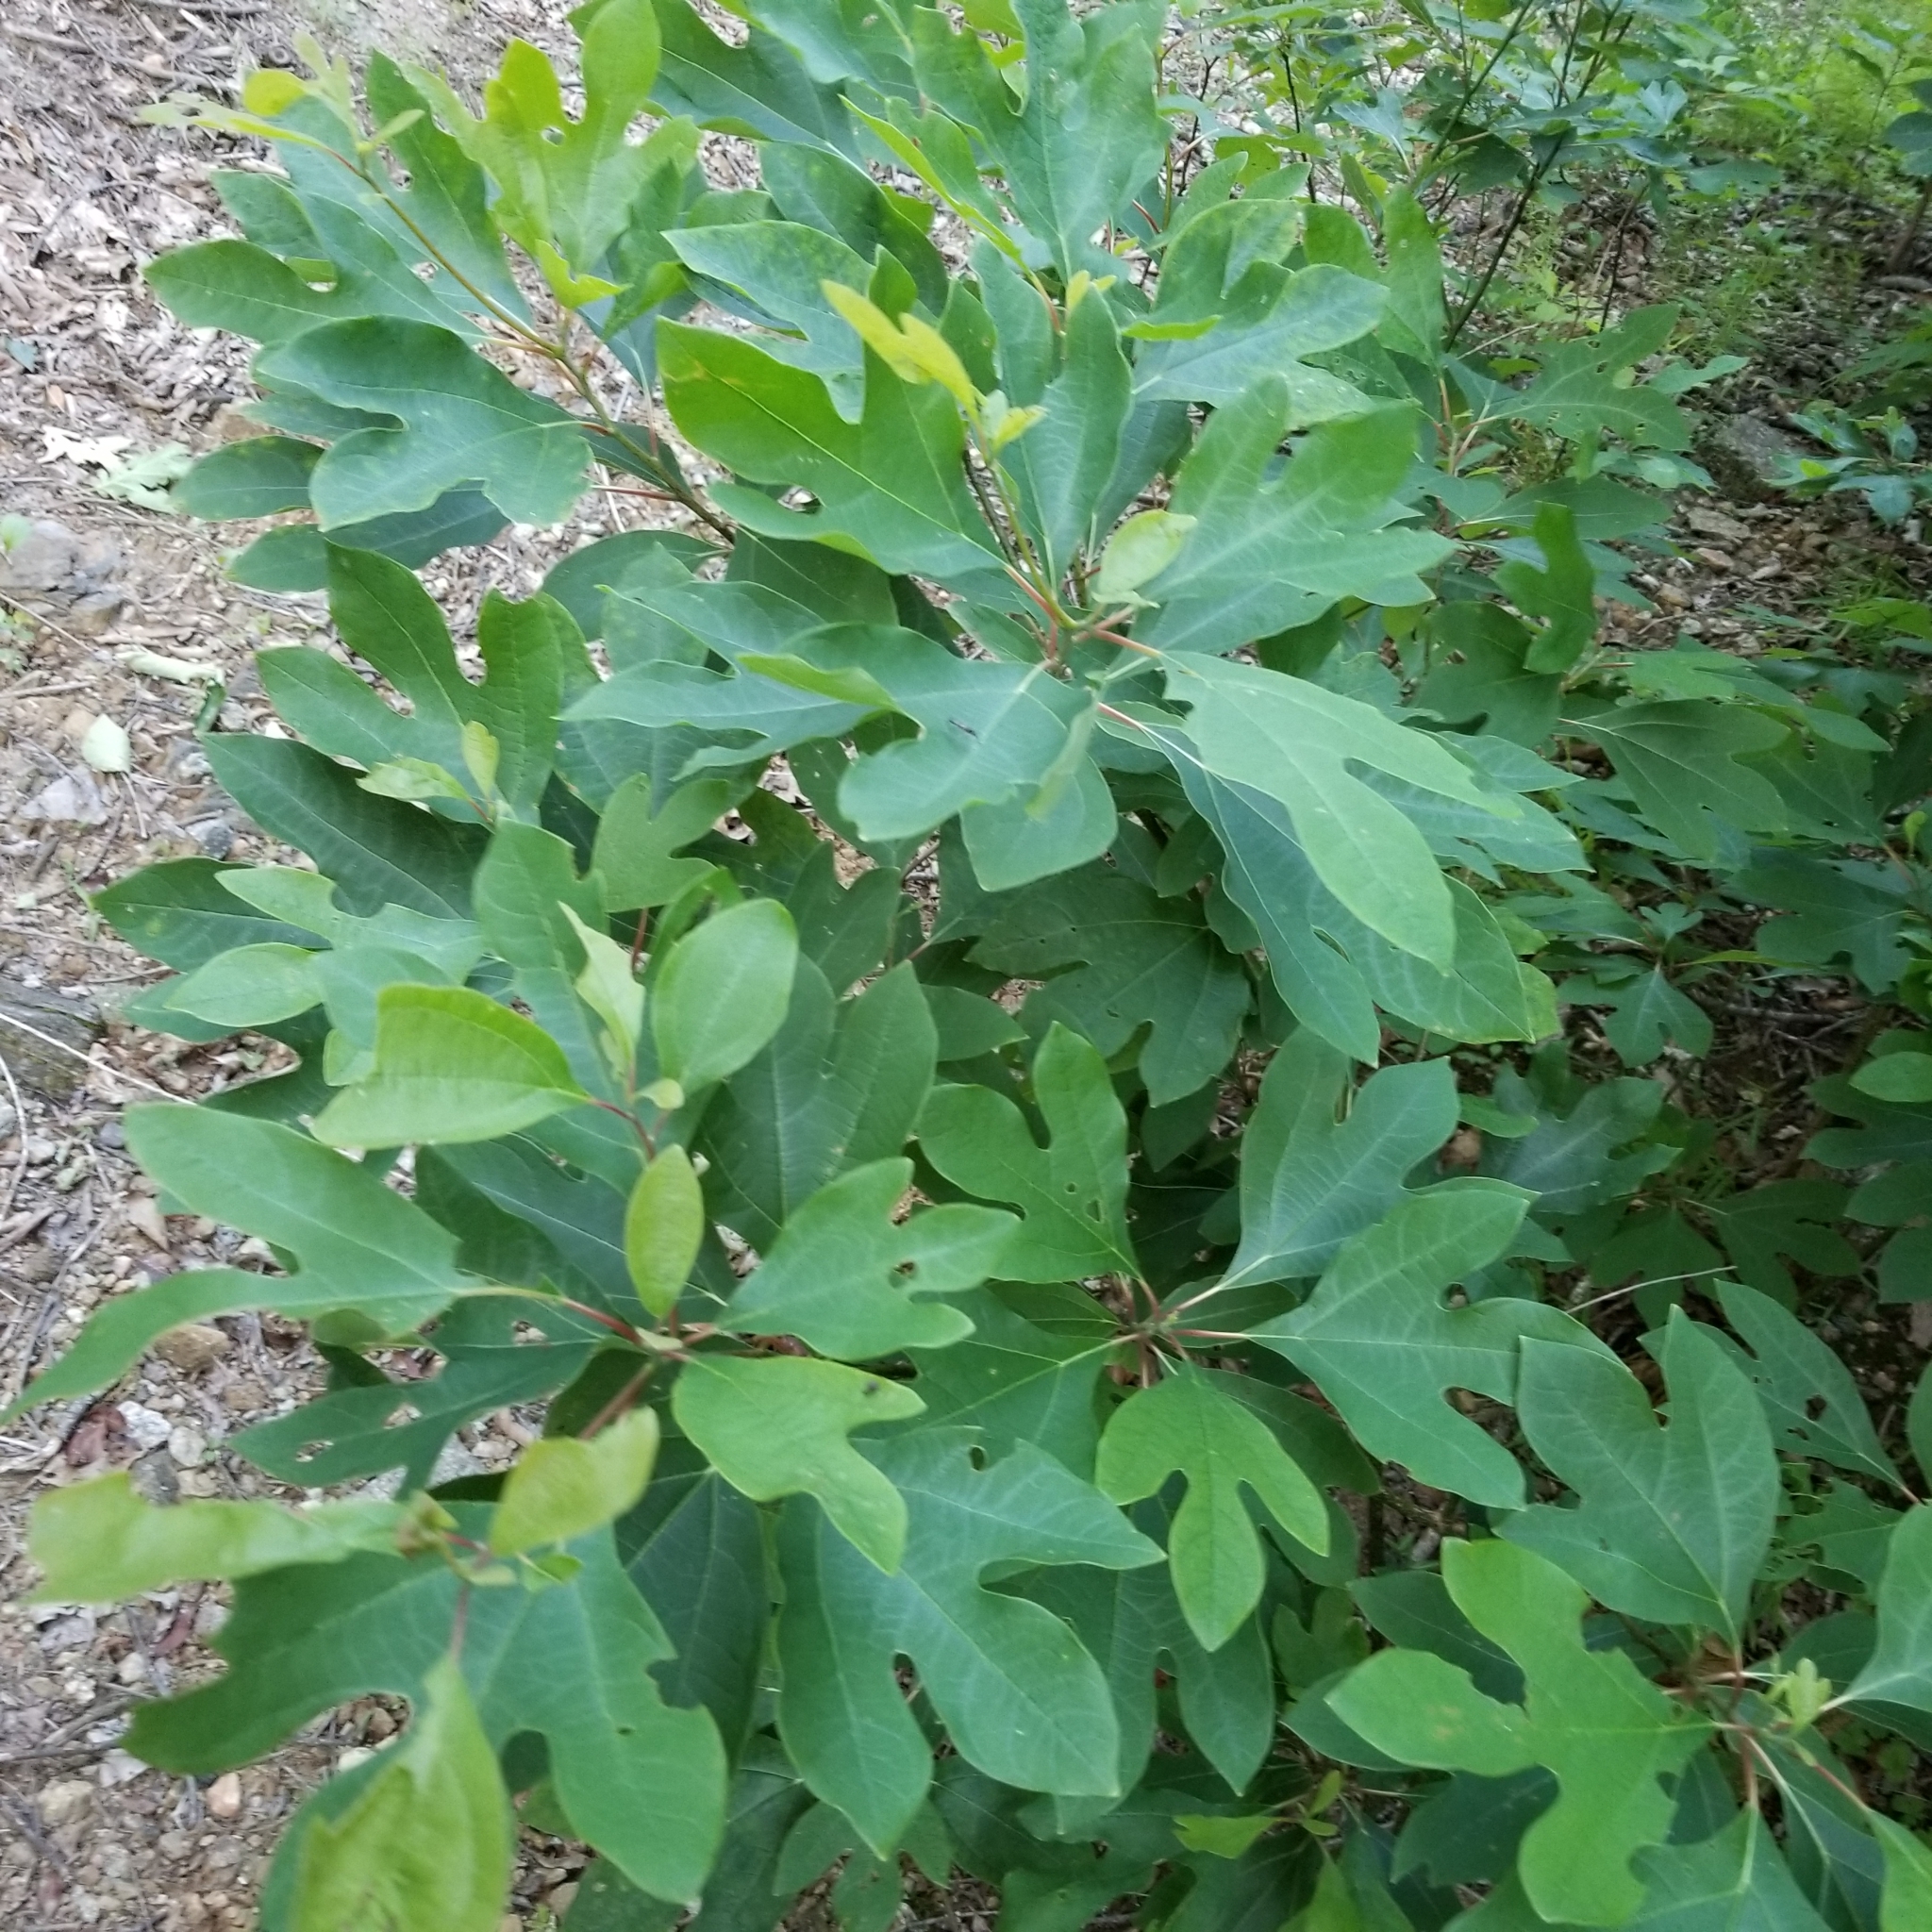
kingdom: Plantae
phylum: Tracheophyta
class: Magnoliopsida
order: Laurales
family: Lauraceae
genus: Sassafras
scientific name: Sassafras albidum
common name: Sassafras
